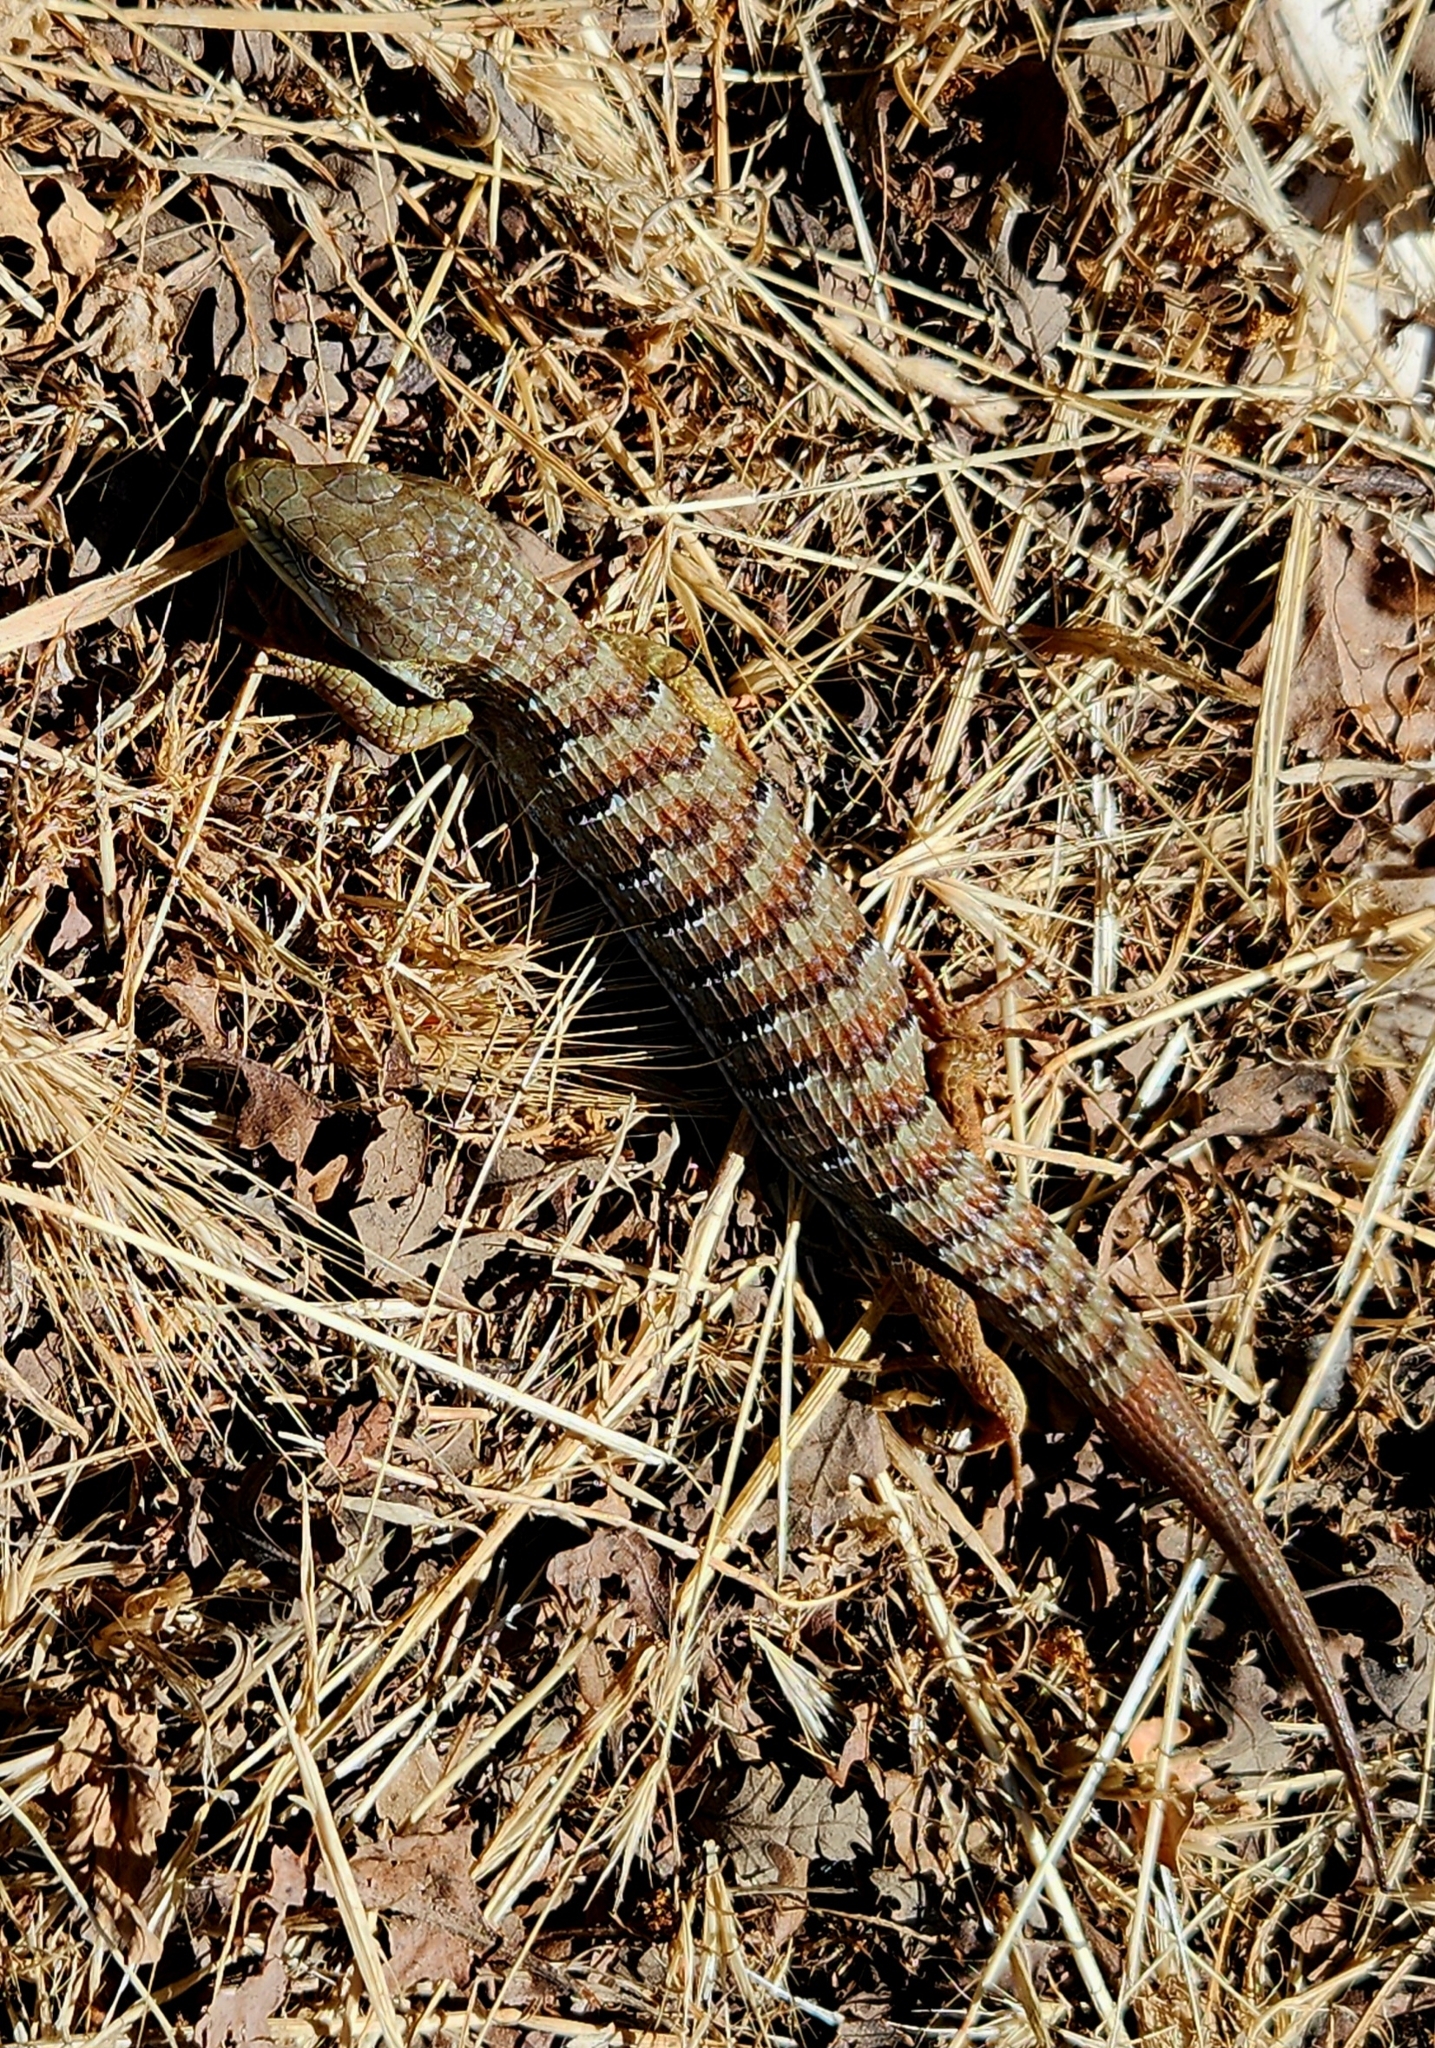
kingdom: Animalia
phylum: Chordata
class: Squamata
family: Anguidae
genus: Elgaria
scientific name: Elgaria multicarinata
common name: Southern alligator lizard
